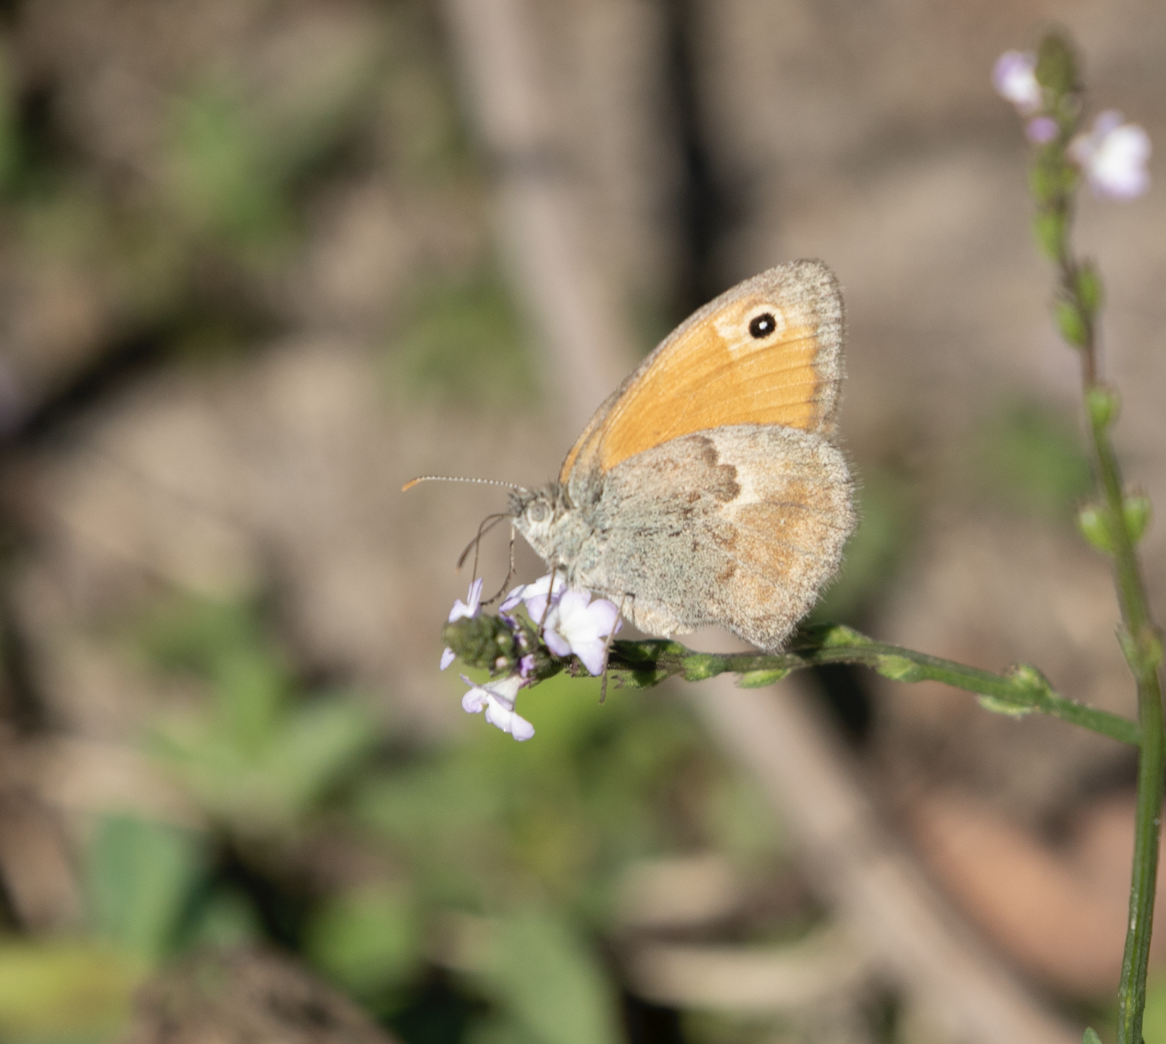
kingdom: Animalia
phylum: Arthropoda
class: Insecta
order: Lepidoptera
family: Nymphalidae
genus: Coenonympha
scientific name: Coenonympha pamphilus
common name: Small heath
